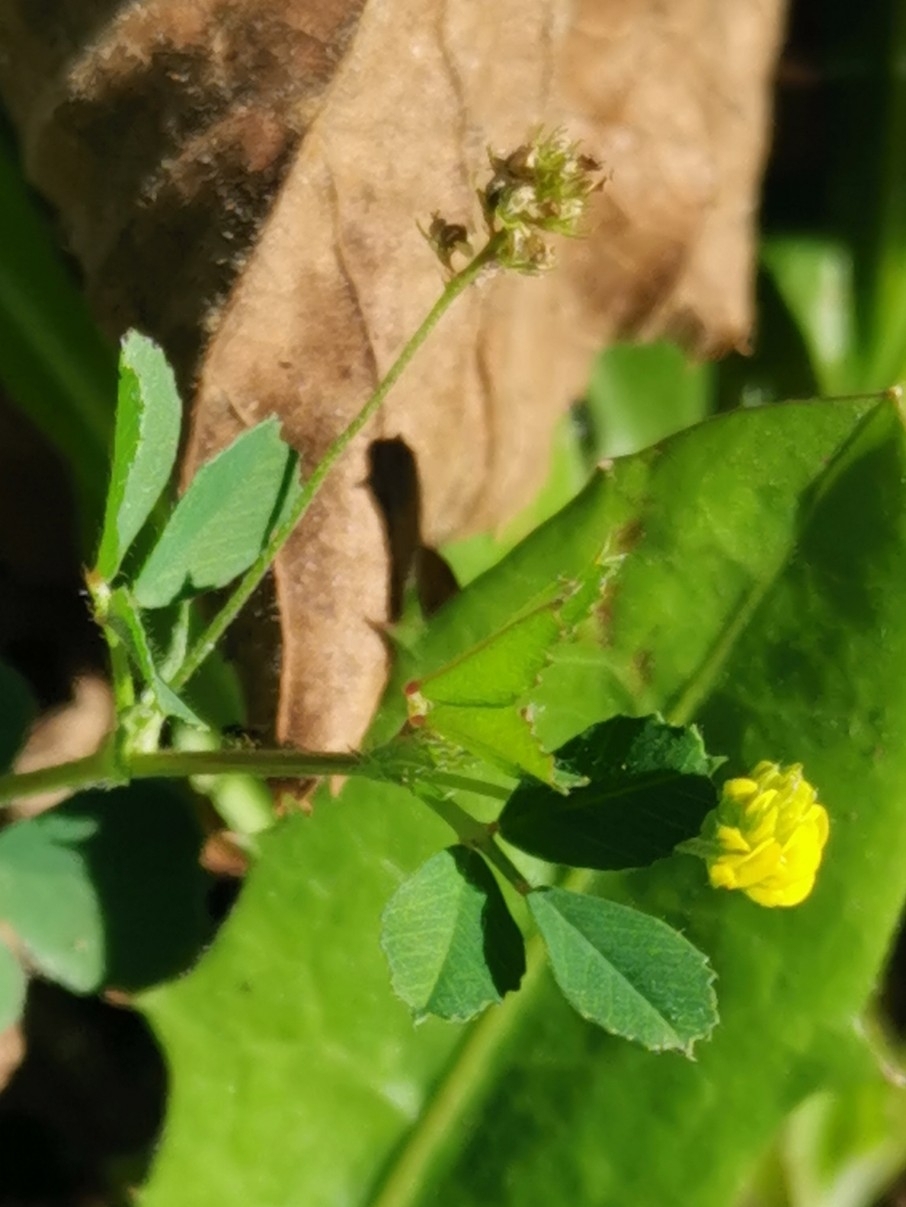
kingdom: Plantae
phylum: Tracheophyta
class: Magnoliopsida
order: Fabales
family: Fabaceae
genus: Medicago
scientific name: Medicago lupulina
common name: Black medick
